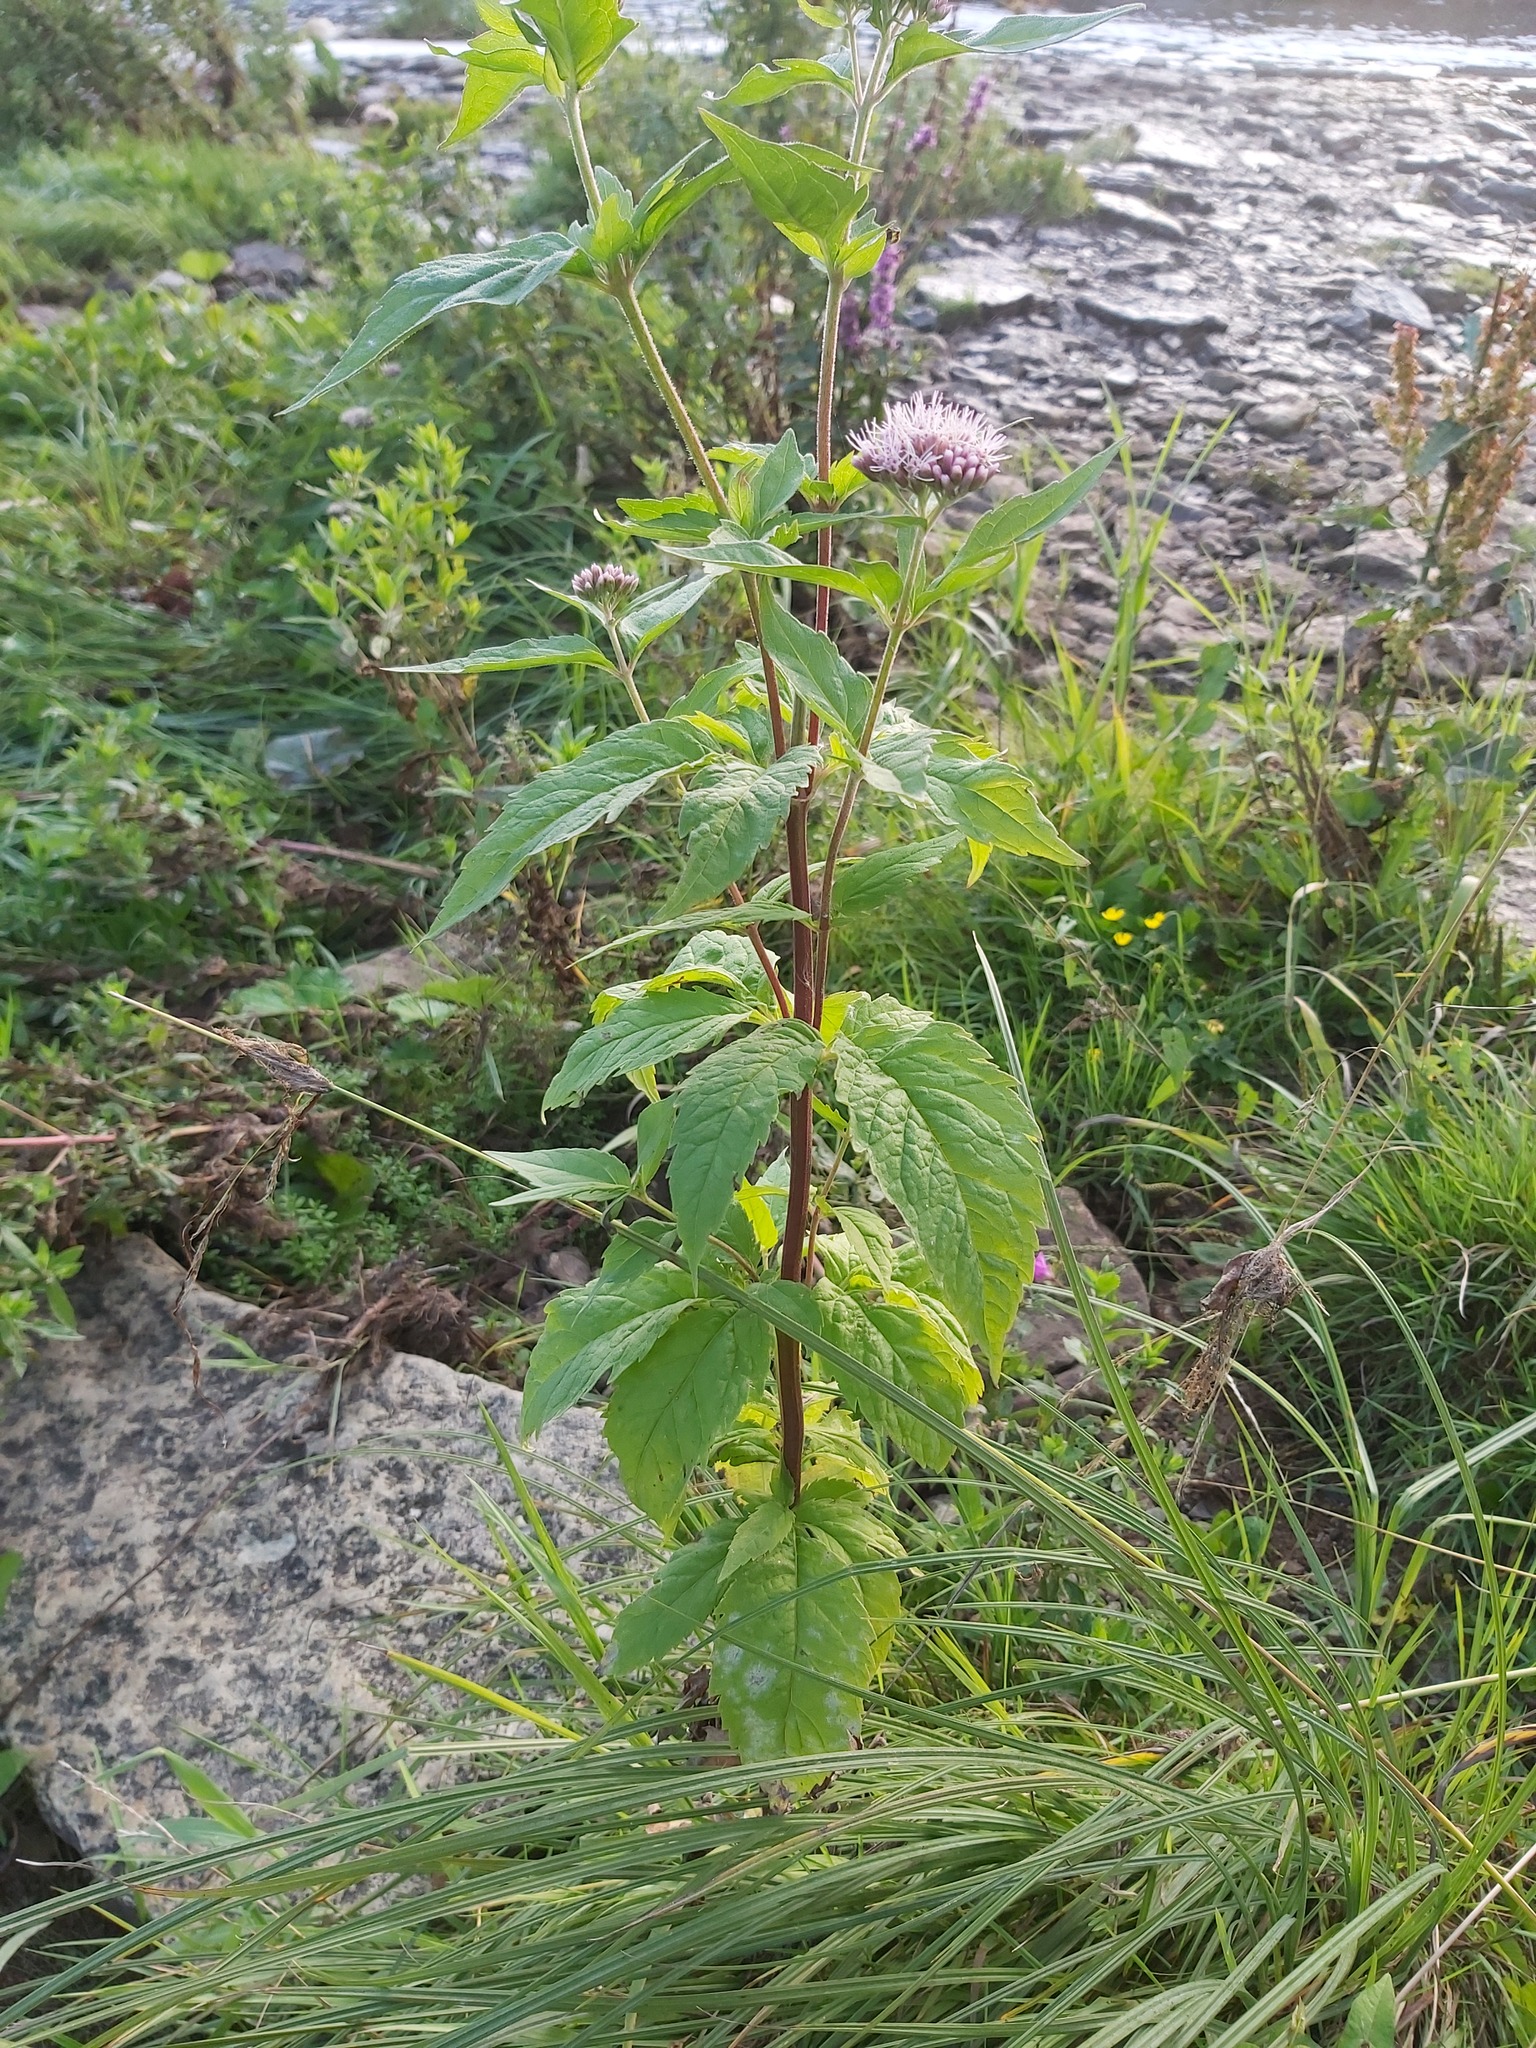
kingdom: Plantae
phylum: Tracheophyta
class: Magnoliopsida
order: Asterales
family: Asteraceae
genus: Eupatorium
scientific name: Eupatorium cannabinum
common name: Hemp-agrimony
